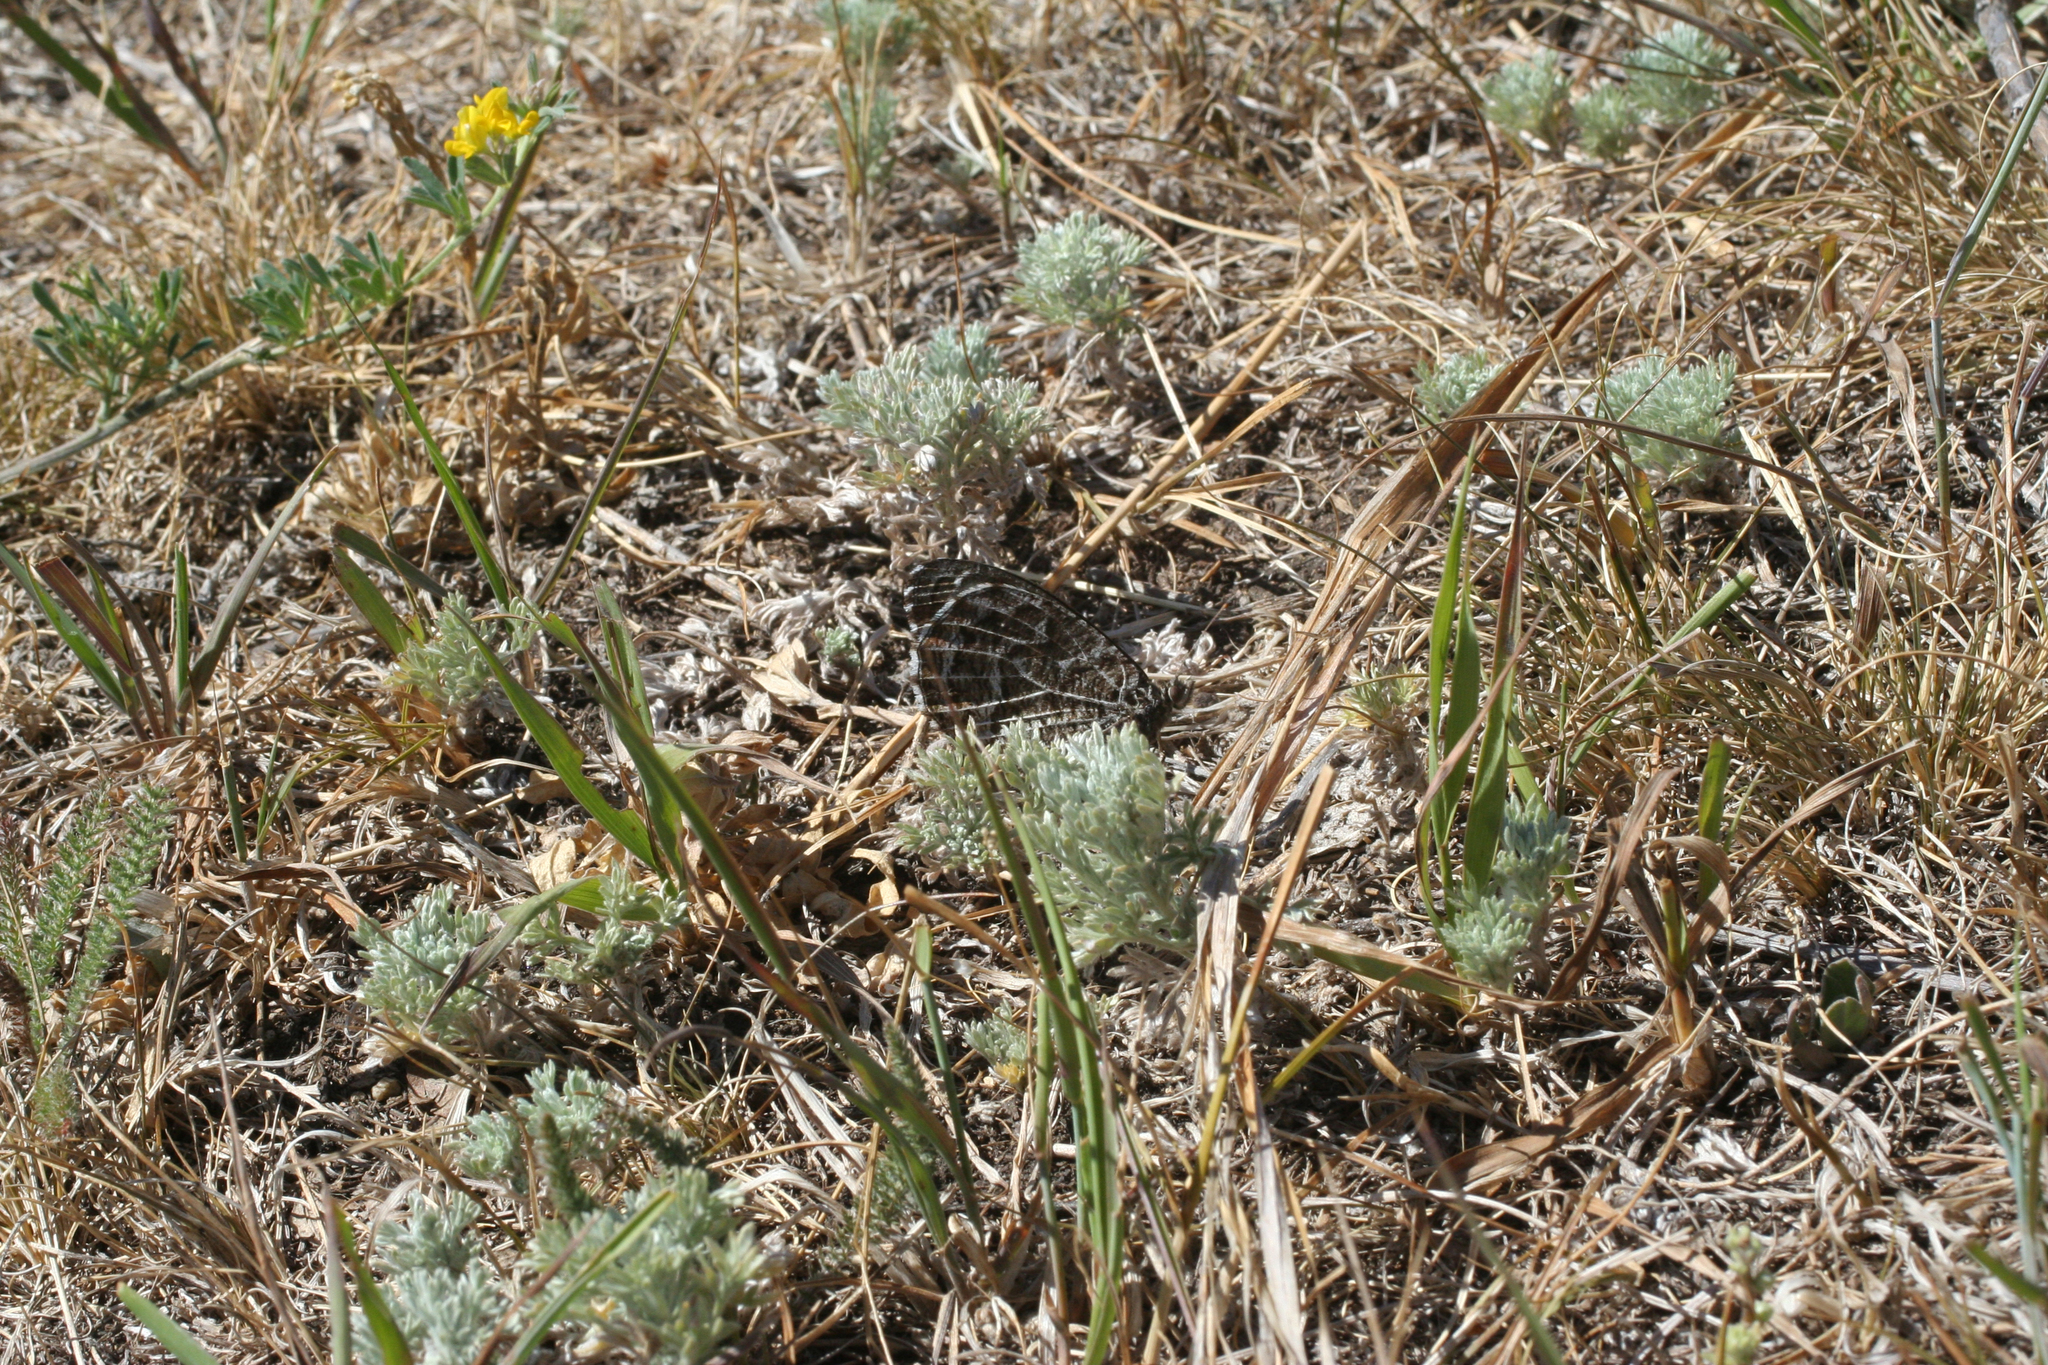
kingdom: Plantae
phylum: Tracheophyta
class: Magnoliopsida
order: Asterales
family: Asteraceae
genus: Artemisia
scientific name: Artemisia frigida
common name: Prairie sagewort
